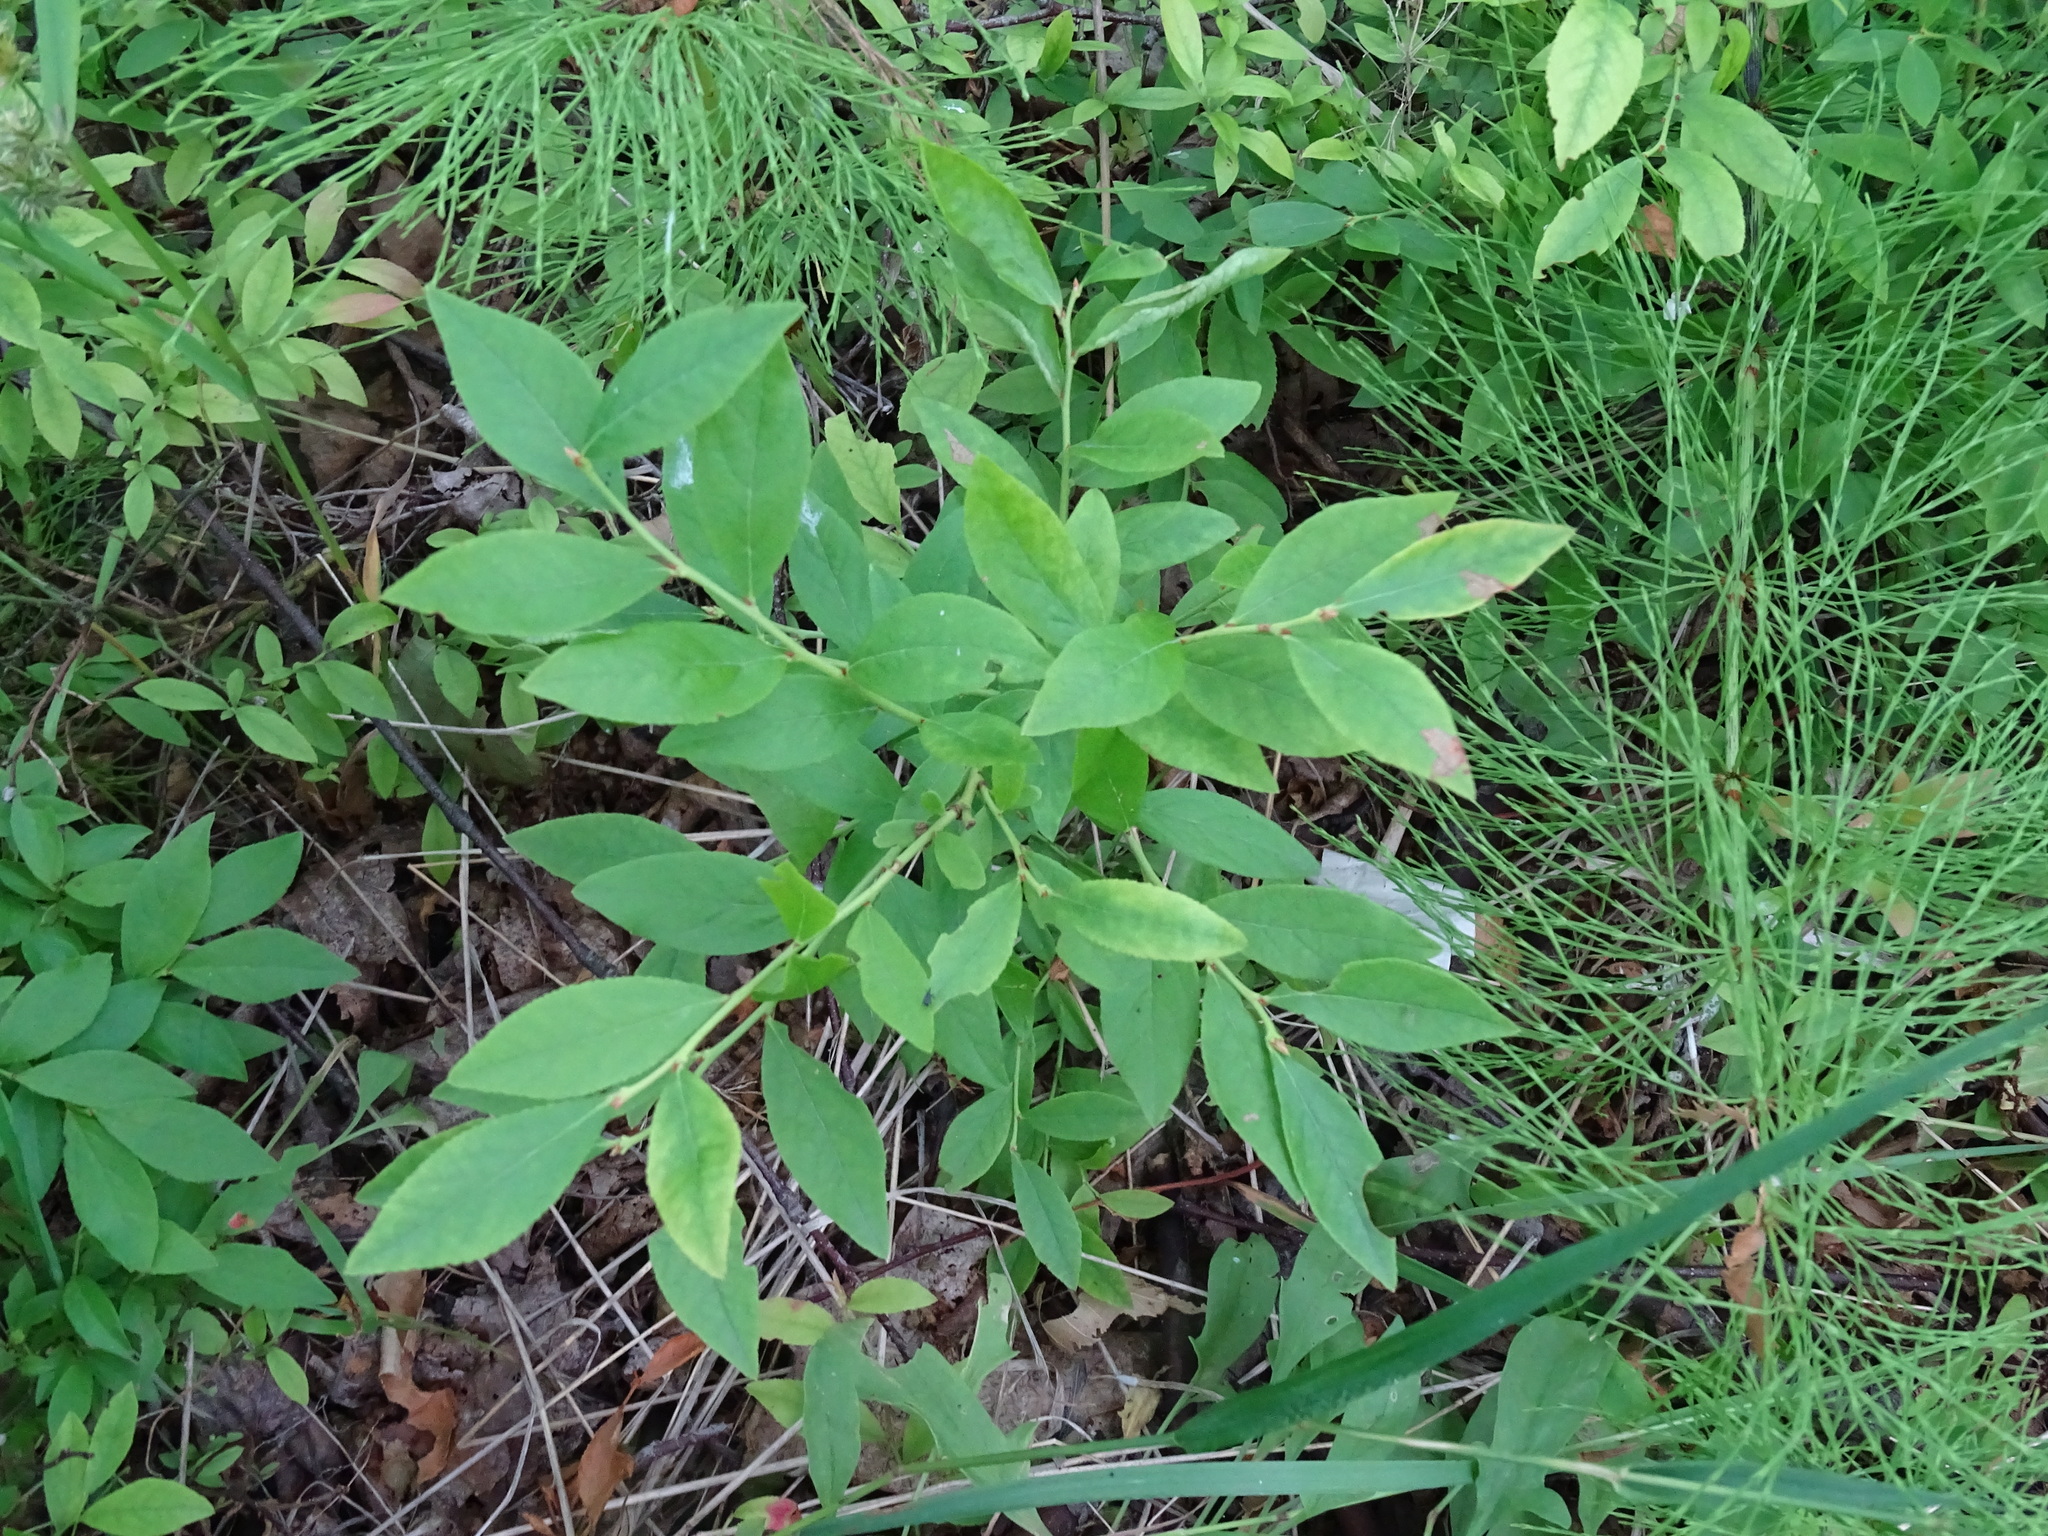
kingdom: Plantae
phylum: Tracheophyta
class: Magnoliopsida
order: Ericales
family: Ericaceae
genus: Vaccinium
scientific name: Vaccinium angustifolium
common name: Early lowbush blueberry
